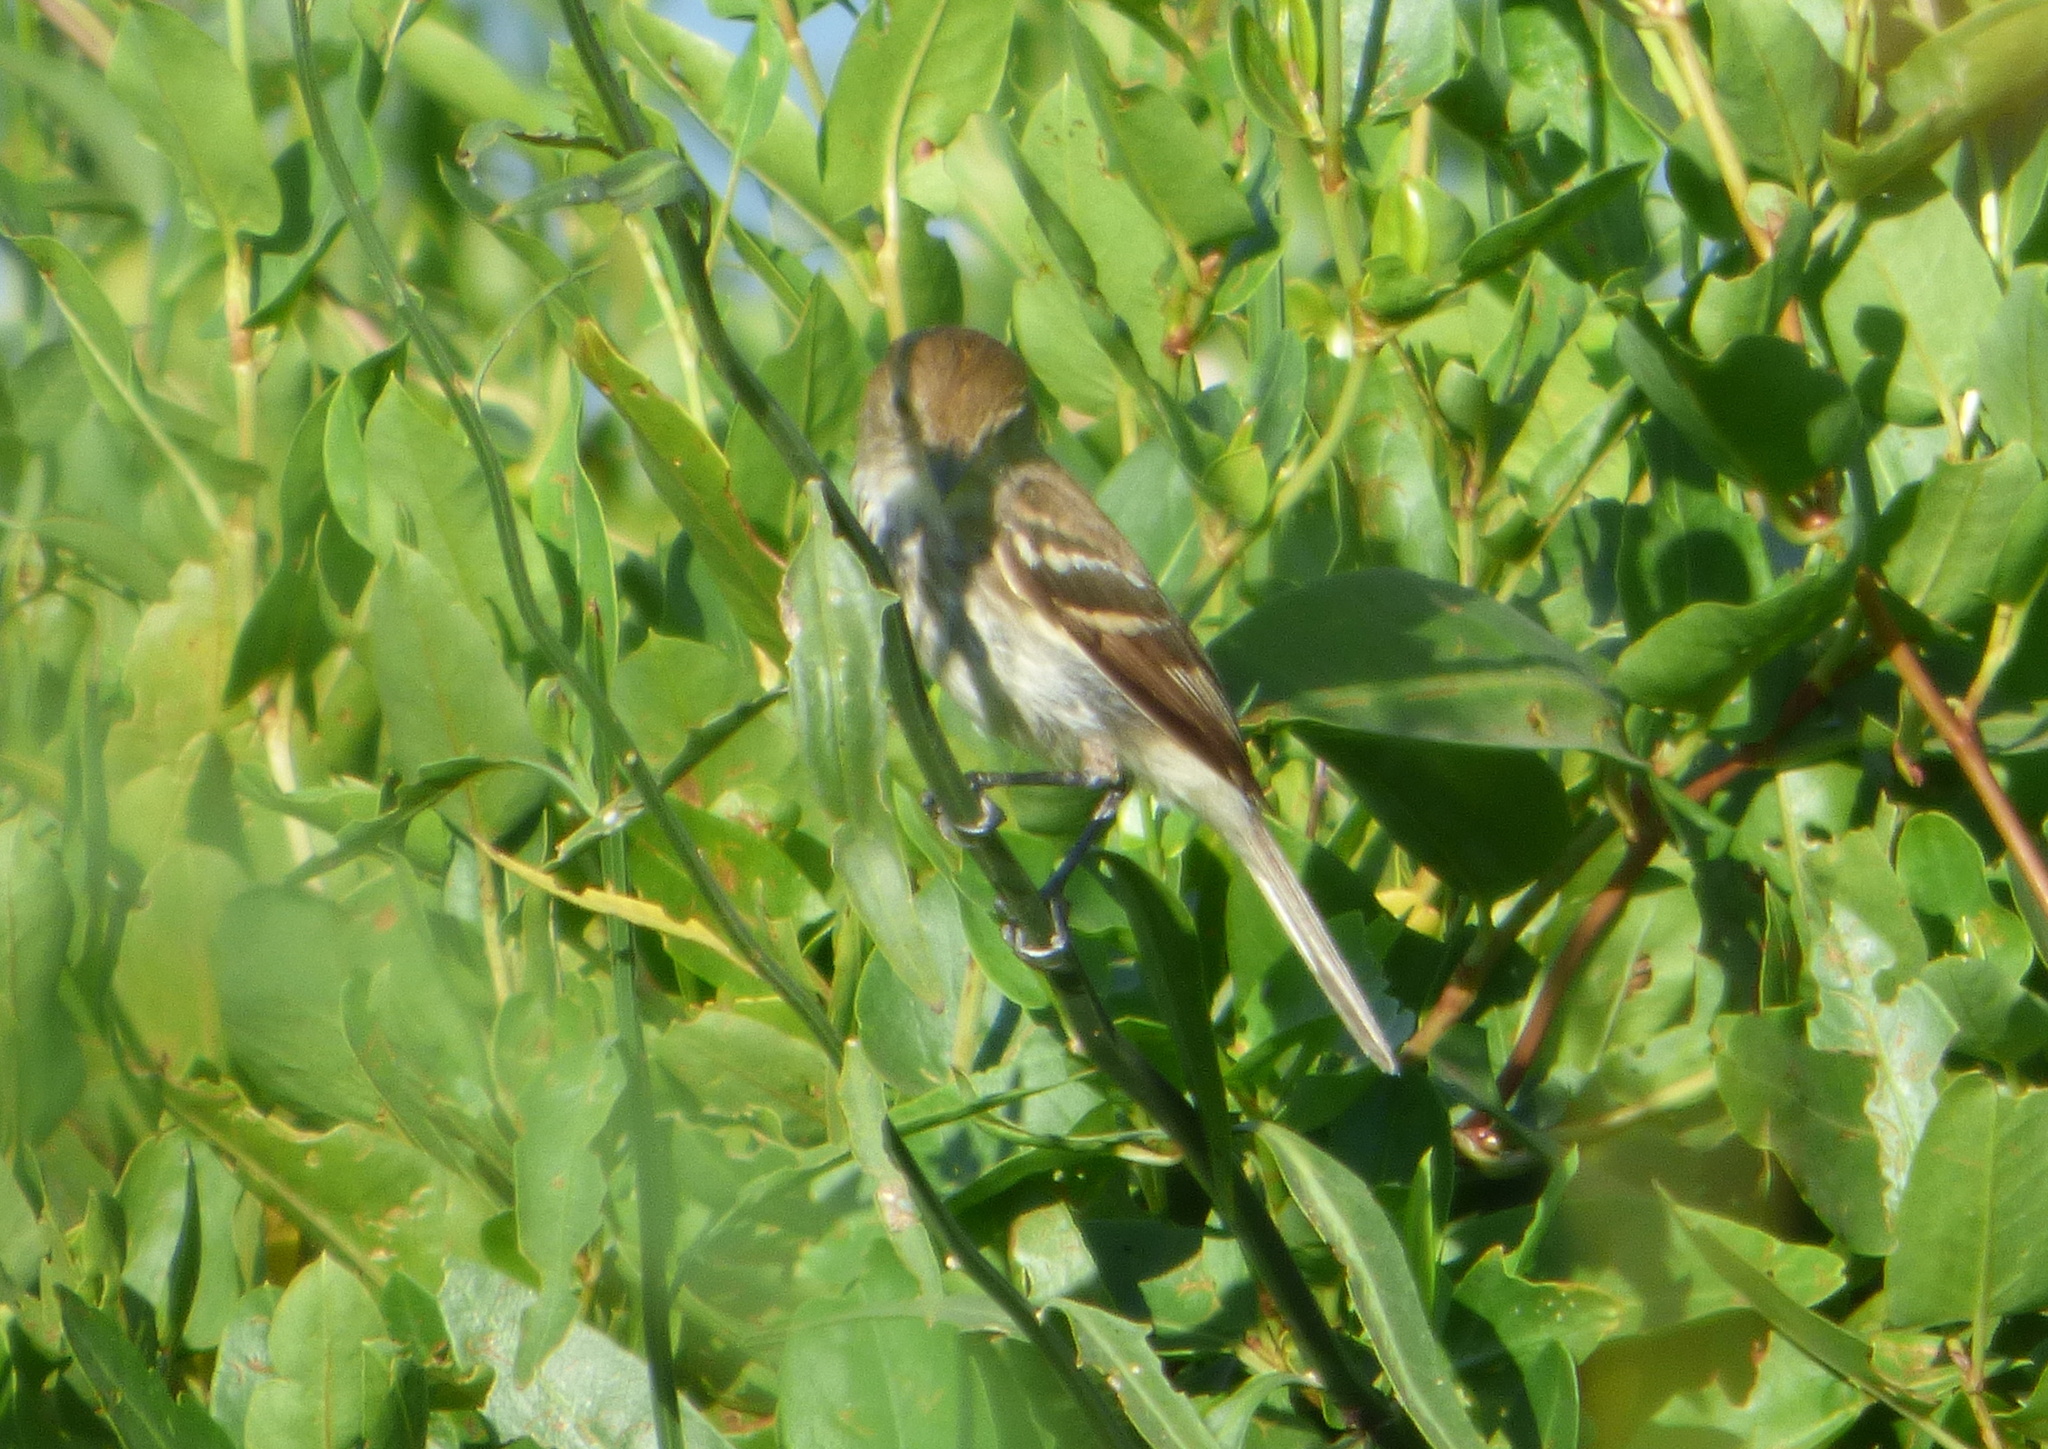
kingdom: Animalia
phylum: Chordata
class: Aves
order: Passeriformes
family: Tyrannidae
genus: Myiophobus
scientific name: Myiophobus fasciatus
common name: Bran-colored flycatcher
